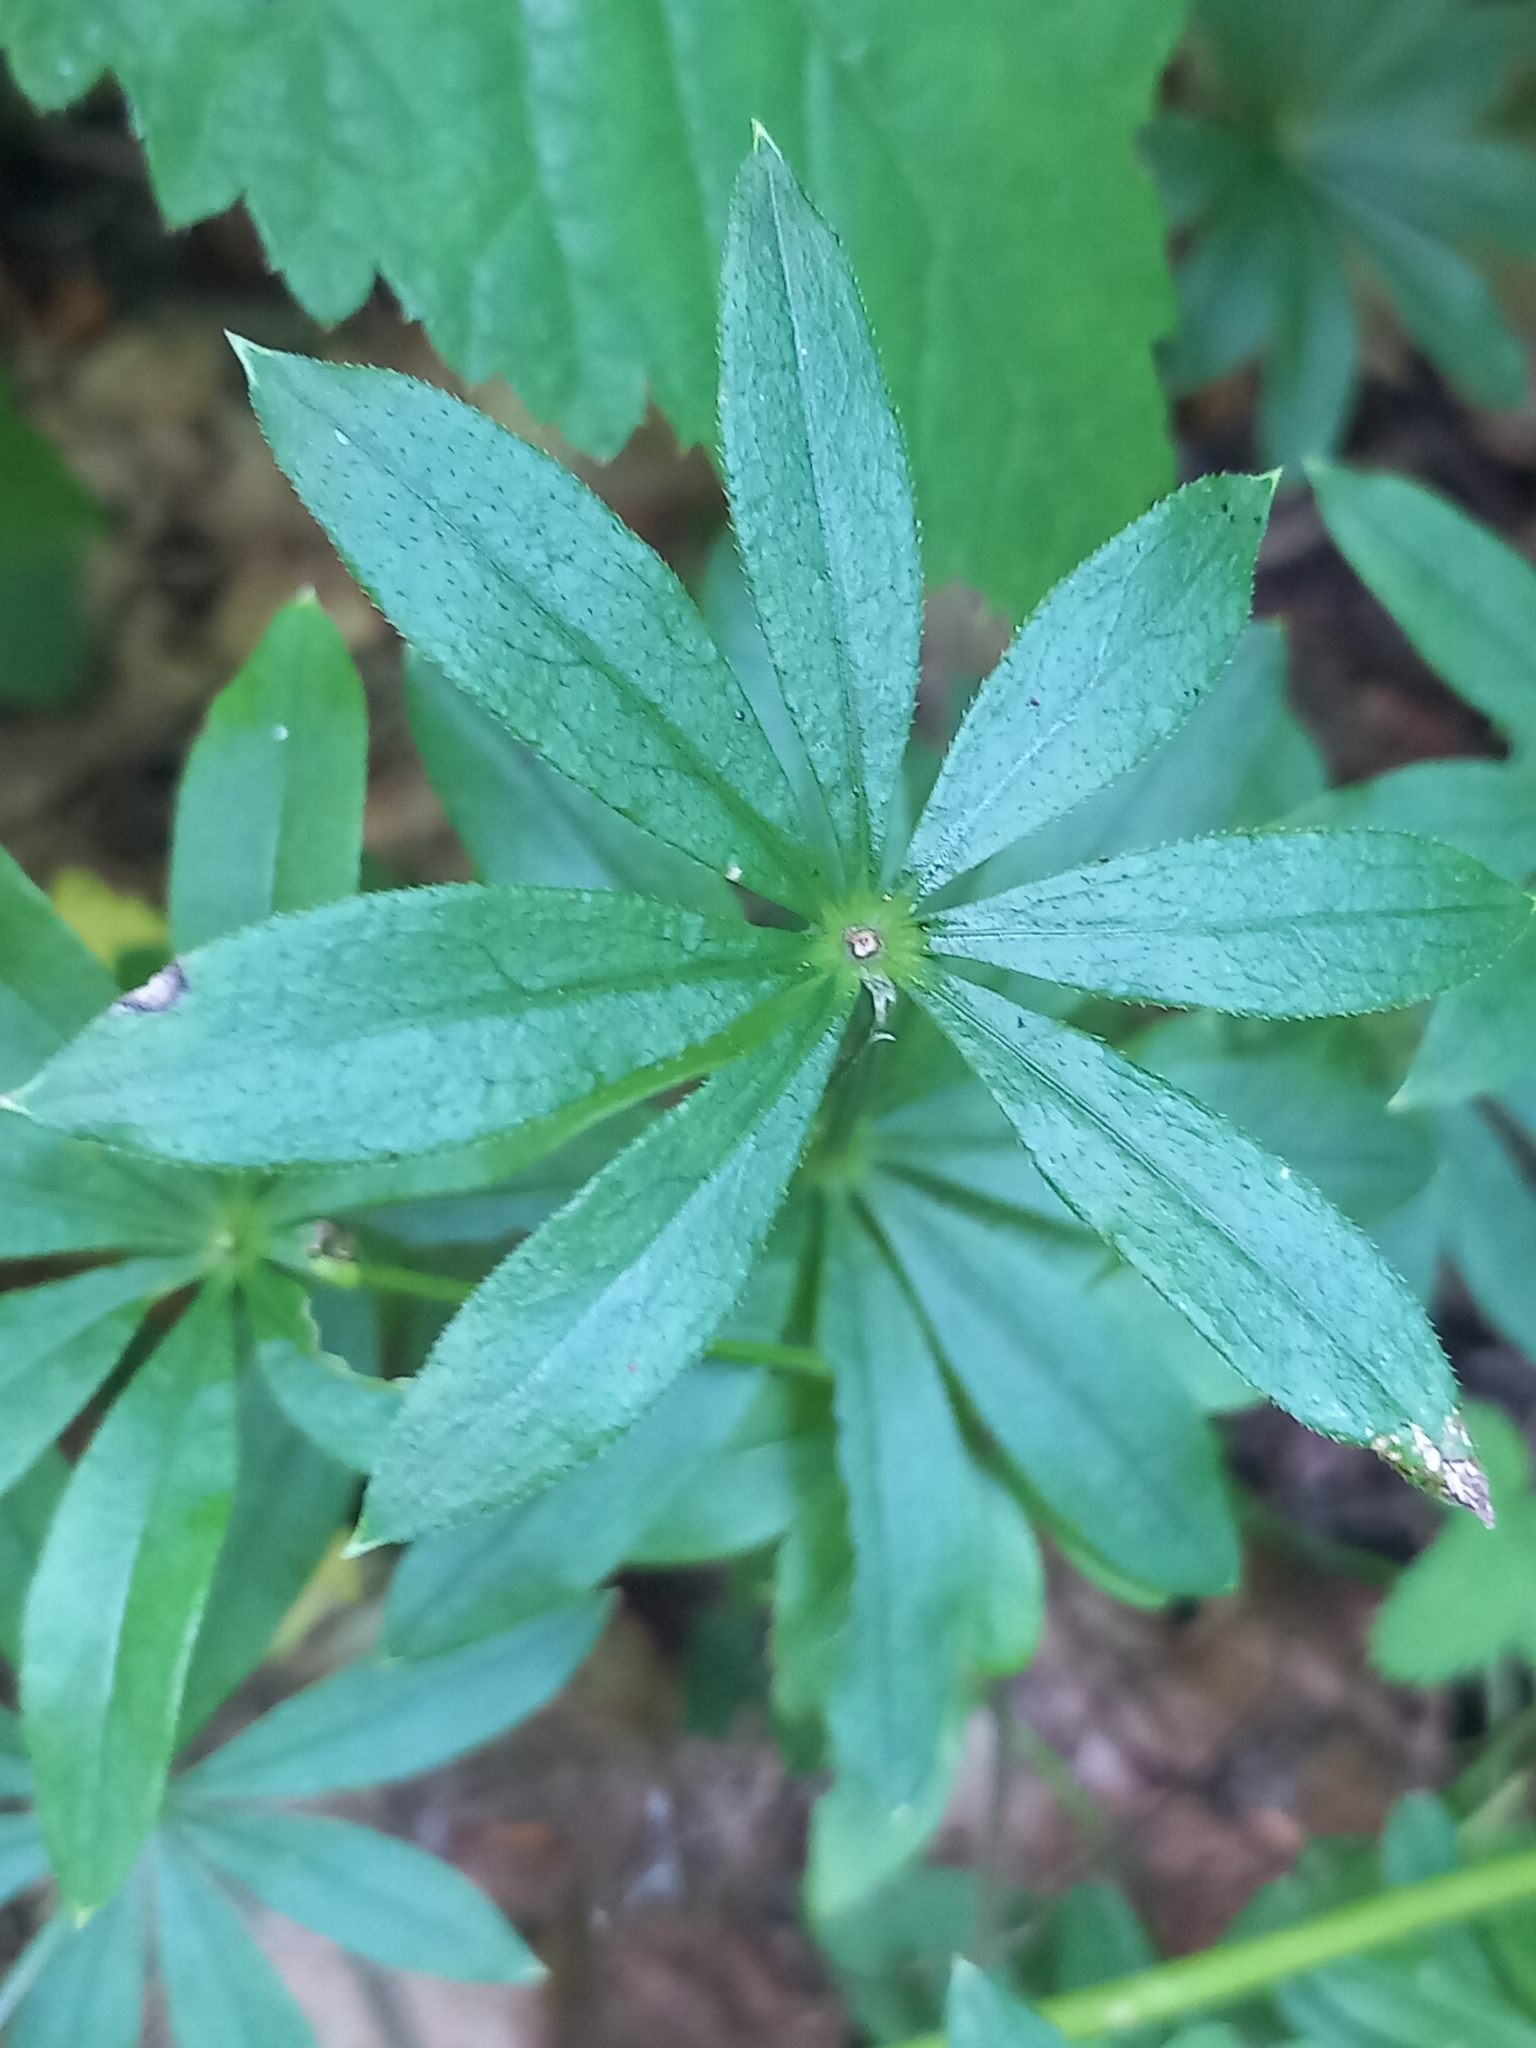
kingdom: Plantae
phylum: Tracheophyta
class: Magnoliopsida
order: Gentianales
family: Rubiaceae
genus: Galium
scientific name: Galium odoratum
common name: Sweet woodruff
